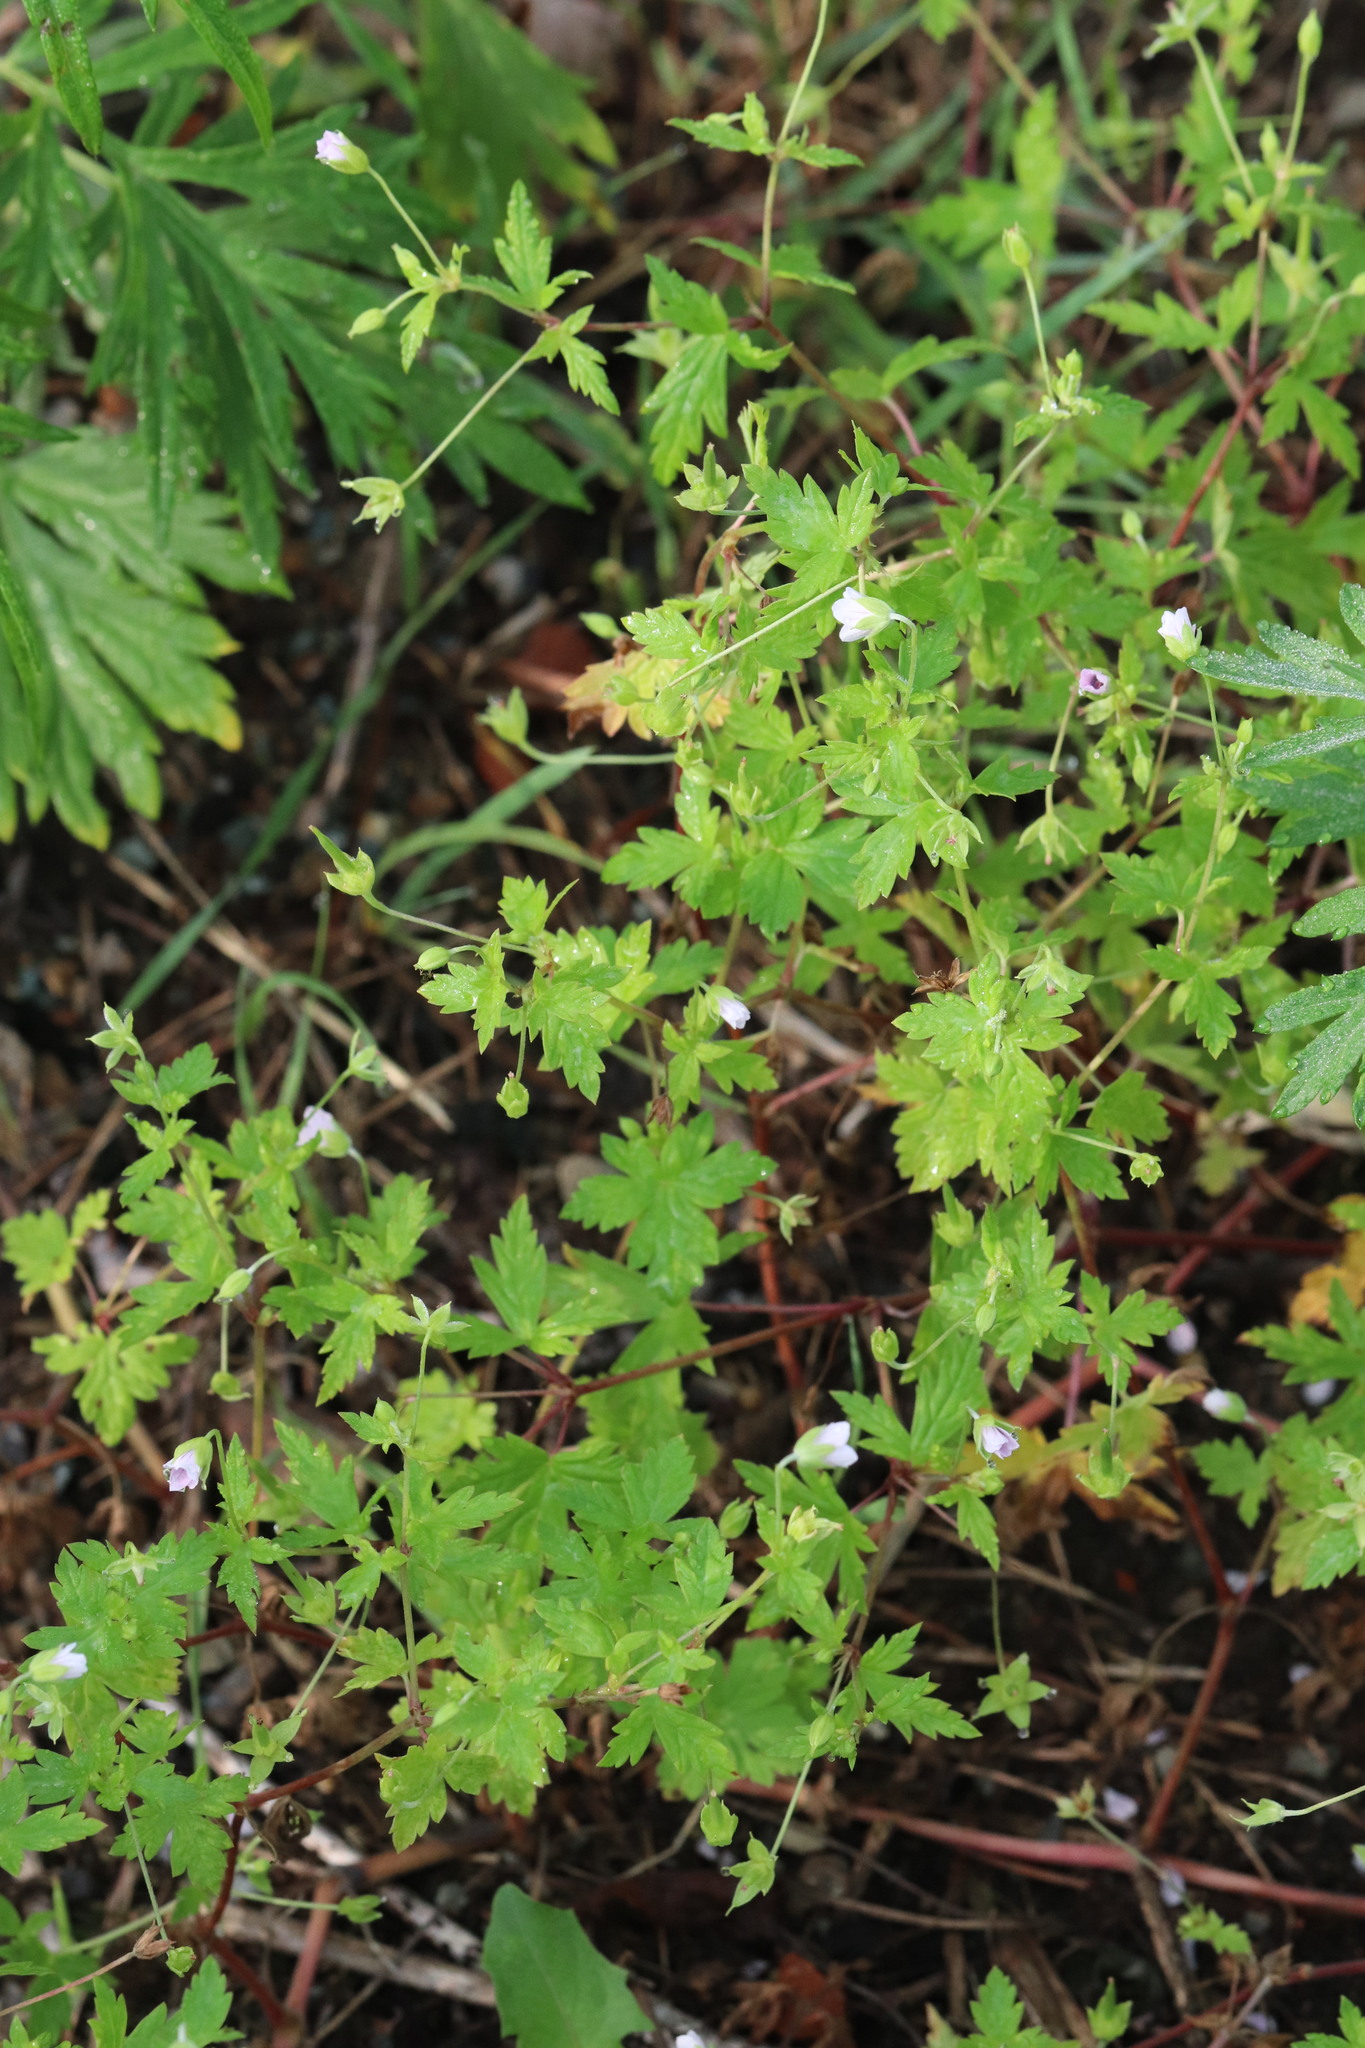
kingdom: Plantae
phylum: Tracheophyta
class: Magnoliopsida
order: Geraniales
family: Geraniaceae
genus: Geranium
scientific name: Geranium sibiricum
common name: Siberian crane's-bill
